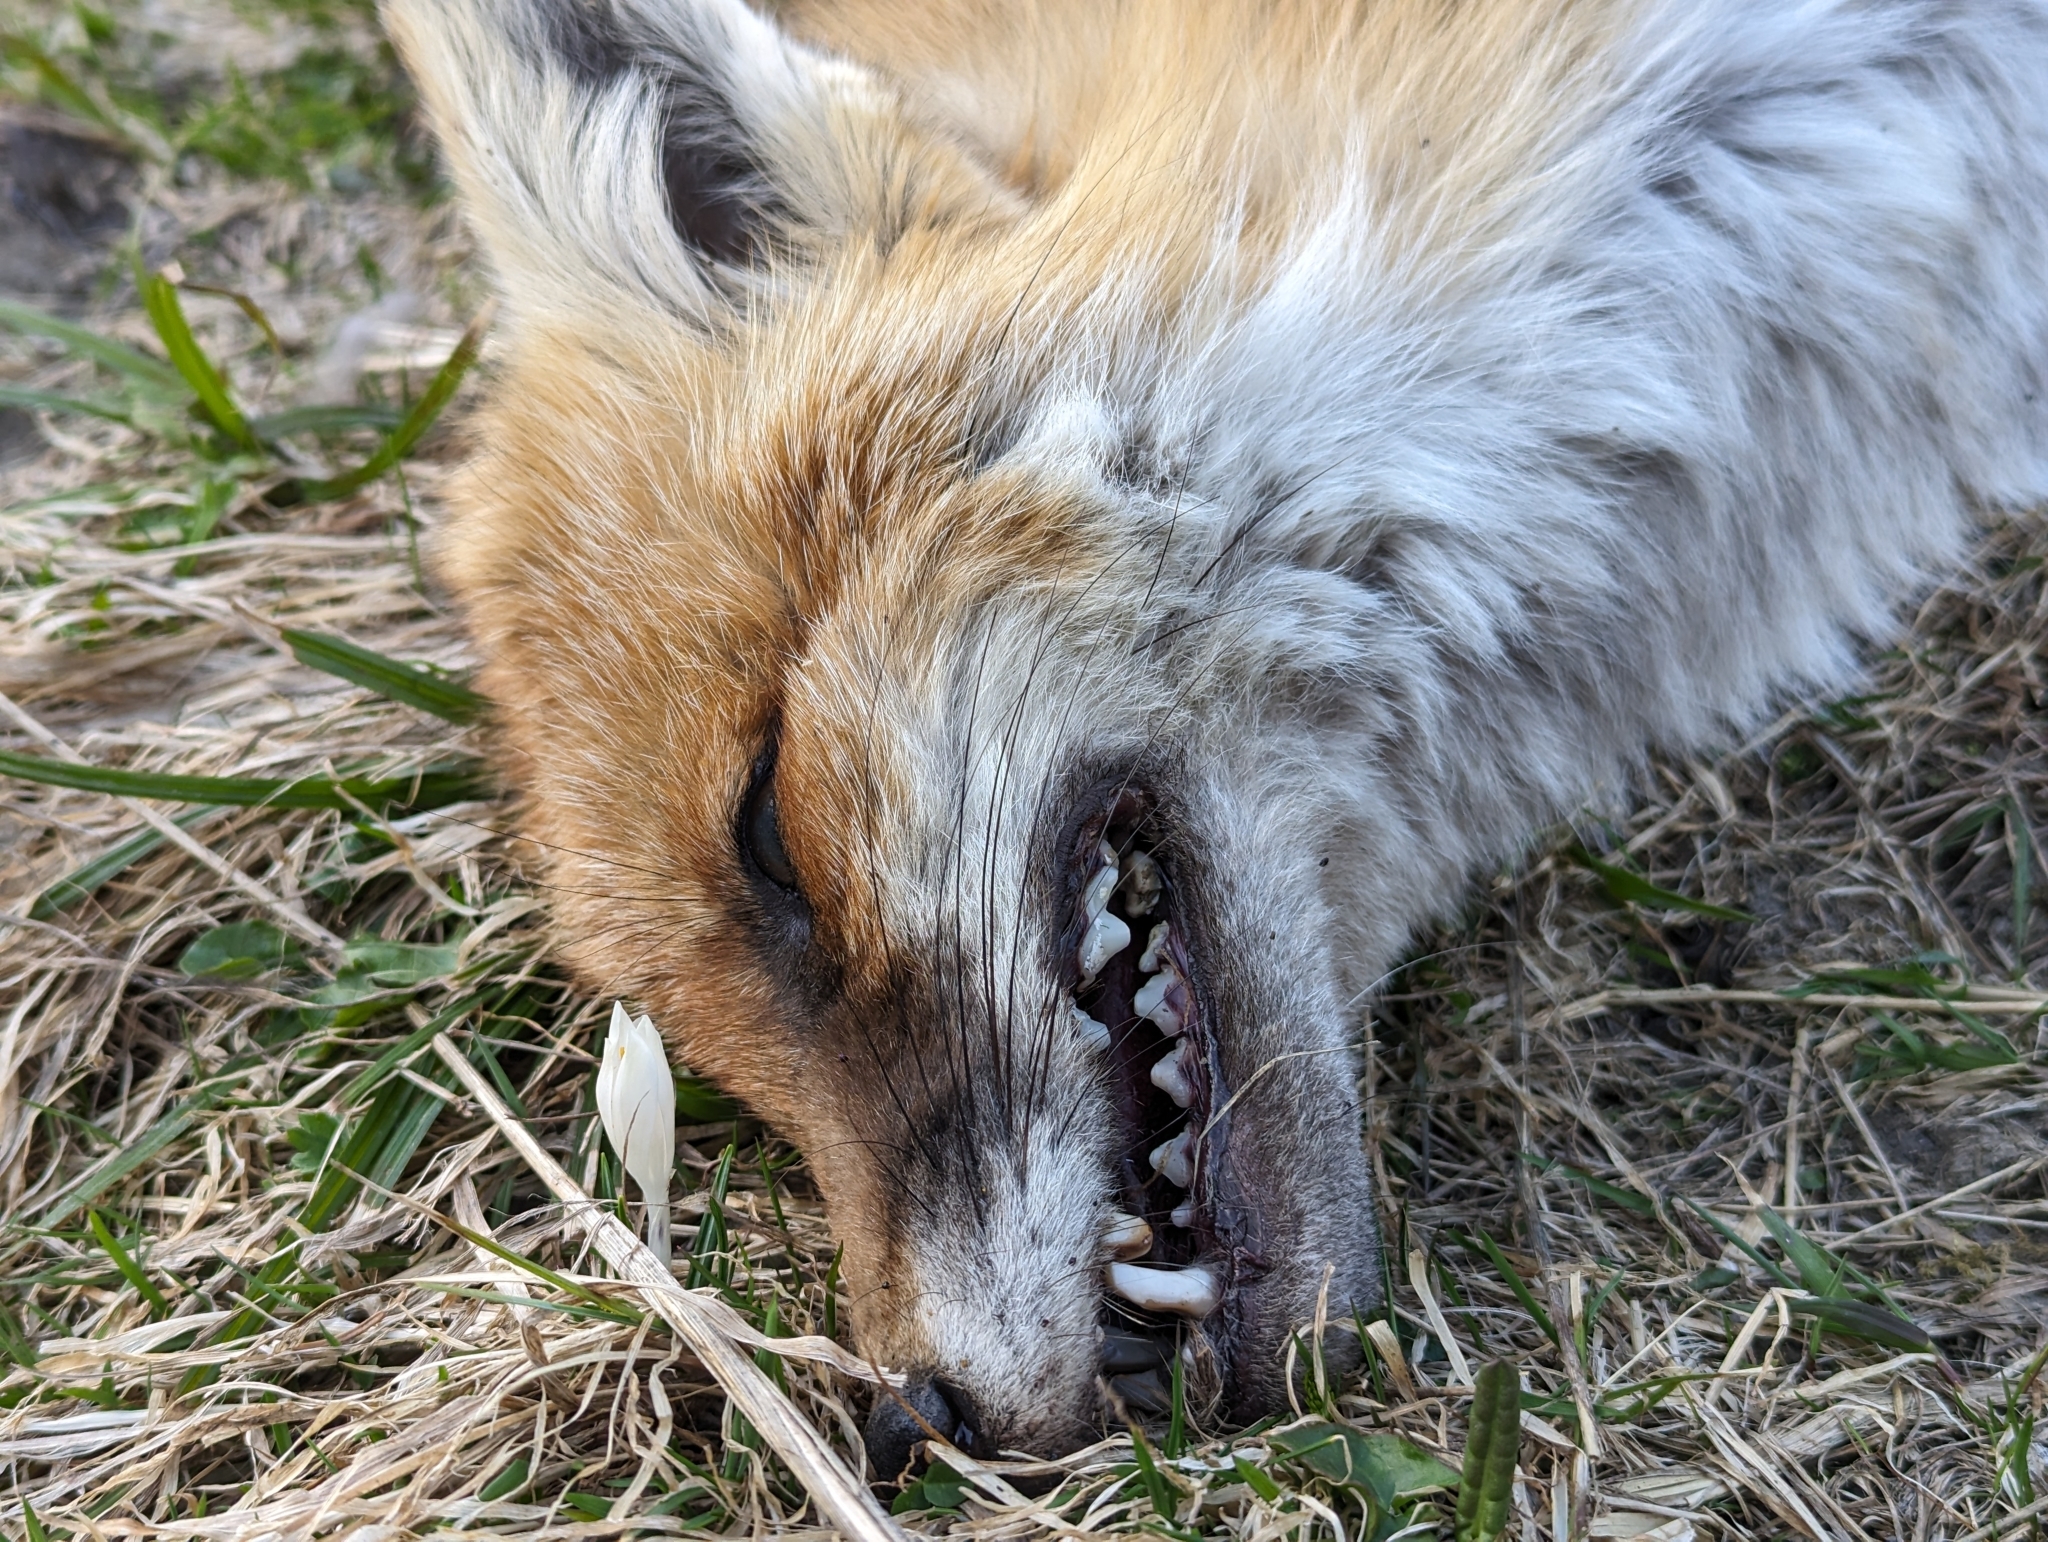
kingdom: Animalia
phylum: Chordata
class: Mammalia
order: Carnivora
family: Canidae
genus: Vulpes
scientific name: Vulpes vulpes
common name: Red fox
